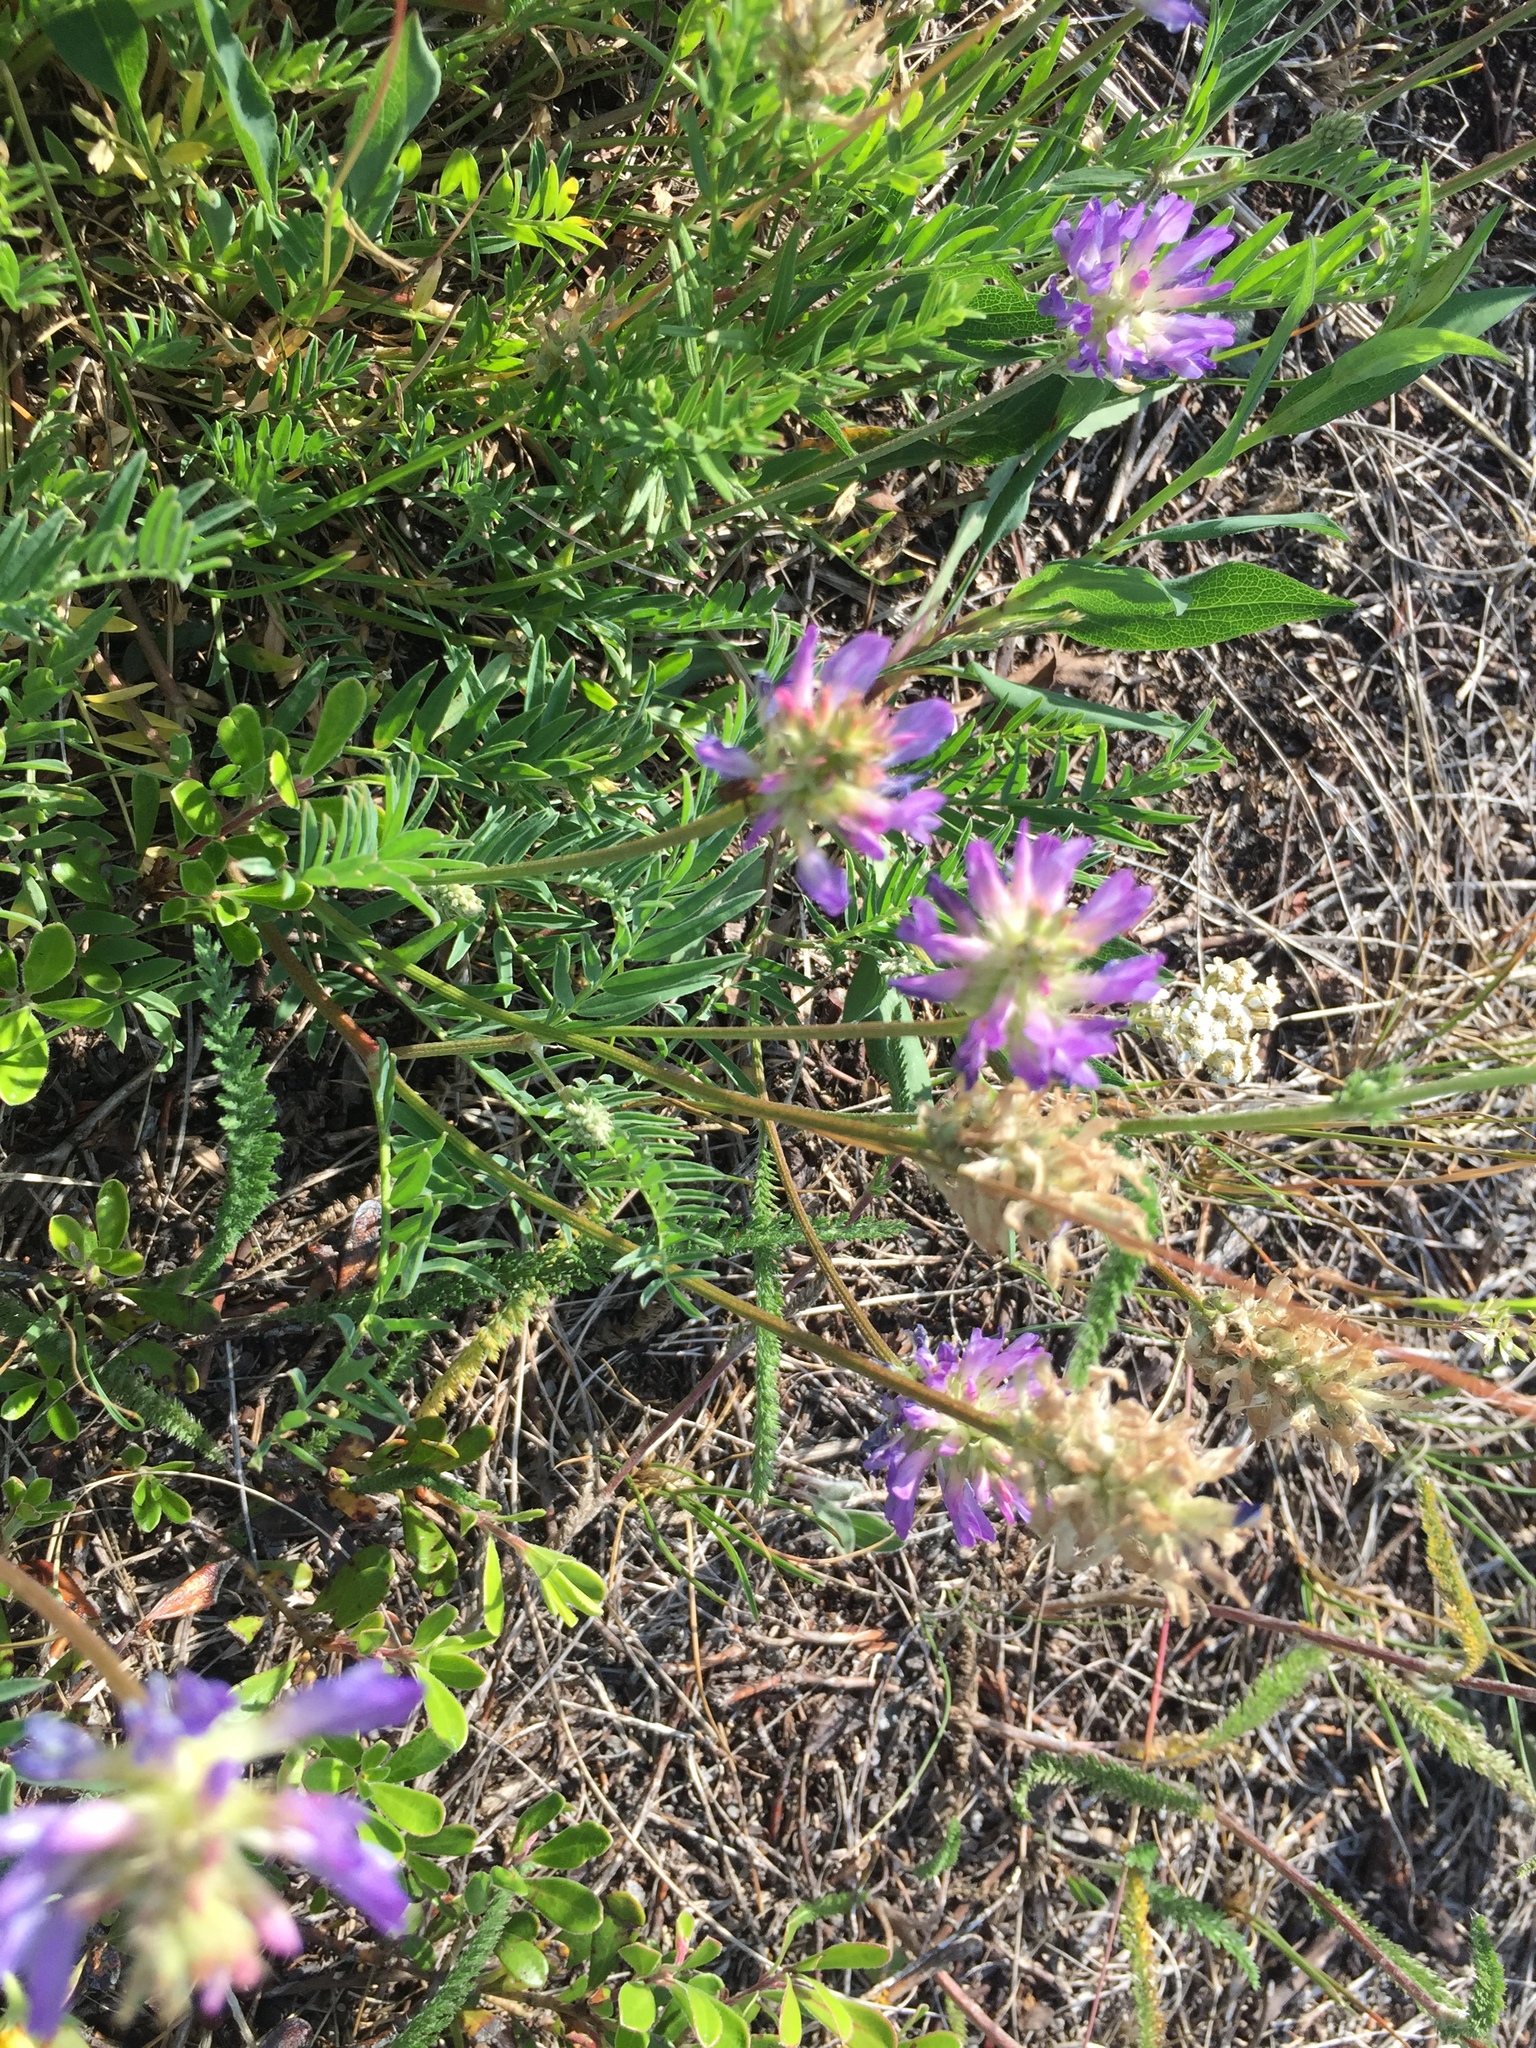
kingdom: Plantae
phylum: Tracheophyta
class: Magnoliopsida
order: Fabales
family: Fabaceae
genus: Astragalus
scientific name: Astragalus laxmannii
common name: Laxmann's milk-vetch
